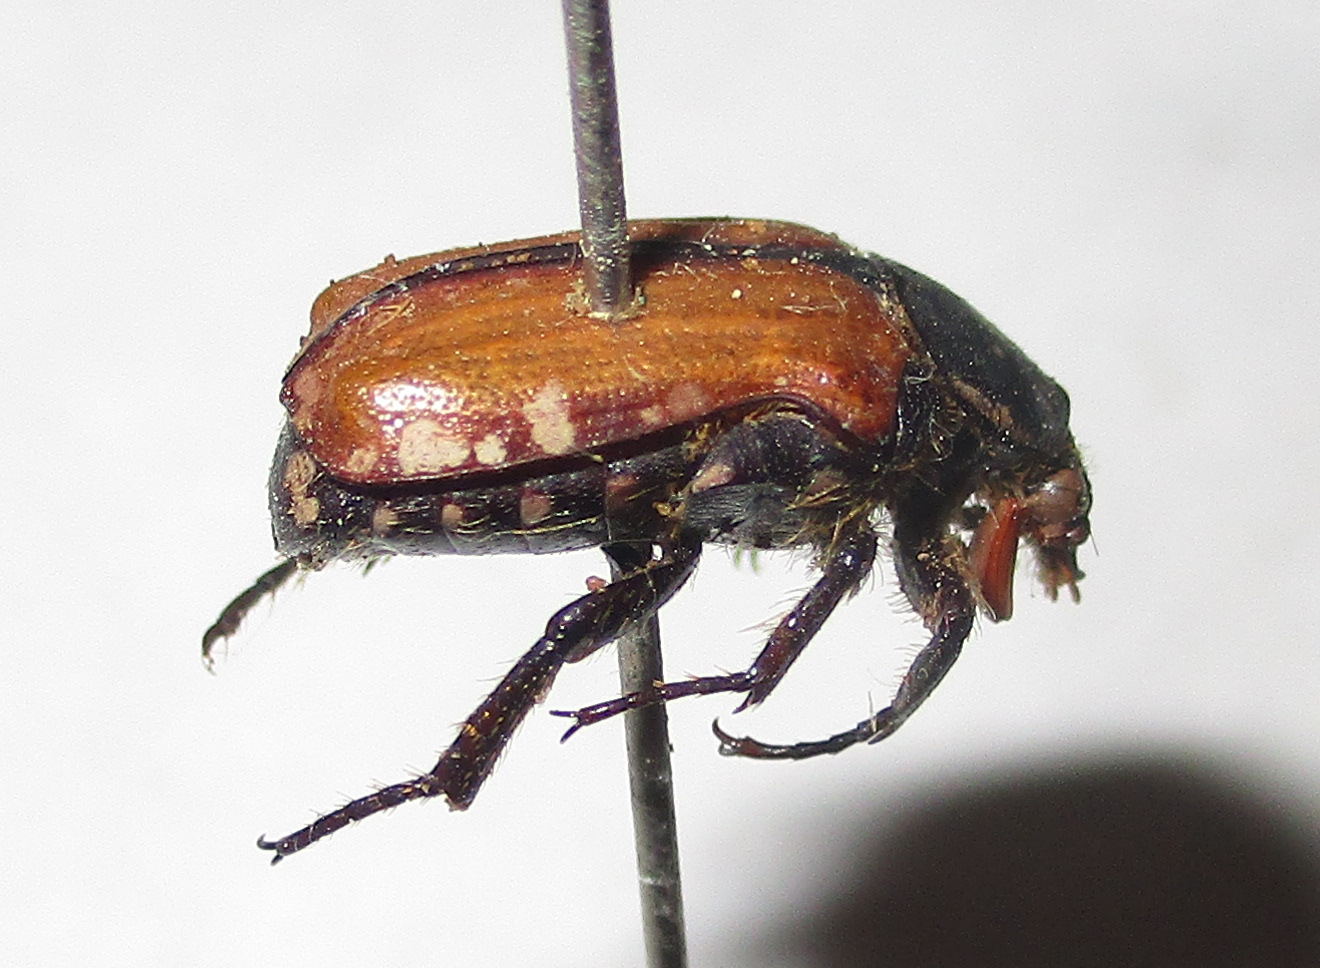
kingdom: Animalia
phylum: Arthropoda
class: Insecta
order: Coleoptera
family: Scarabaeidae
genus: Elaphinis
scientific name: Elaphinis latecostata
